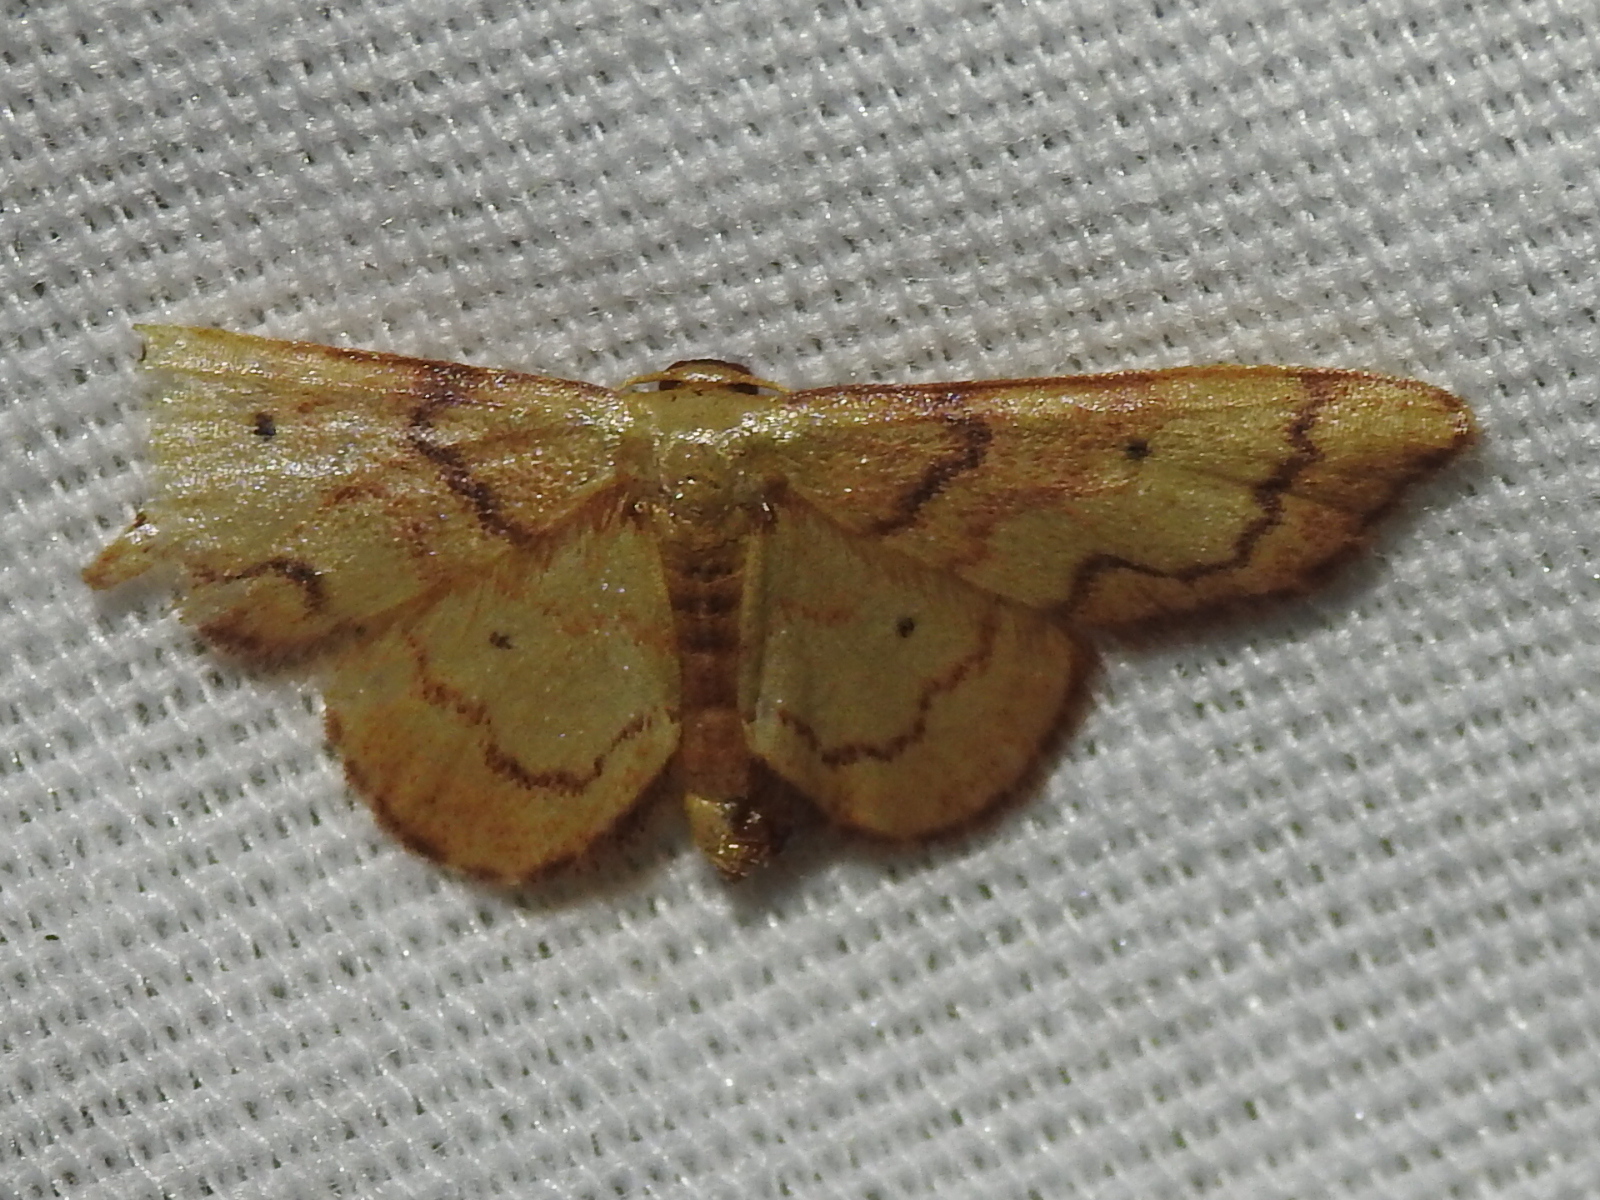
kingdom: Animalia
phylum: Arthropoda
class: Insecta
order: Lepidoptera
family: Geometridae
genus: Idaea
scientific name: Idaea demissaria
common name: Red-bordered wave
